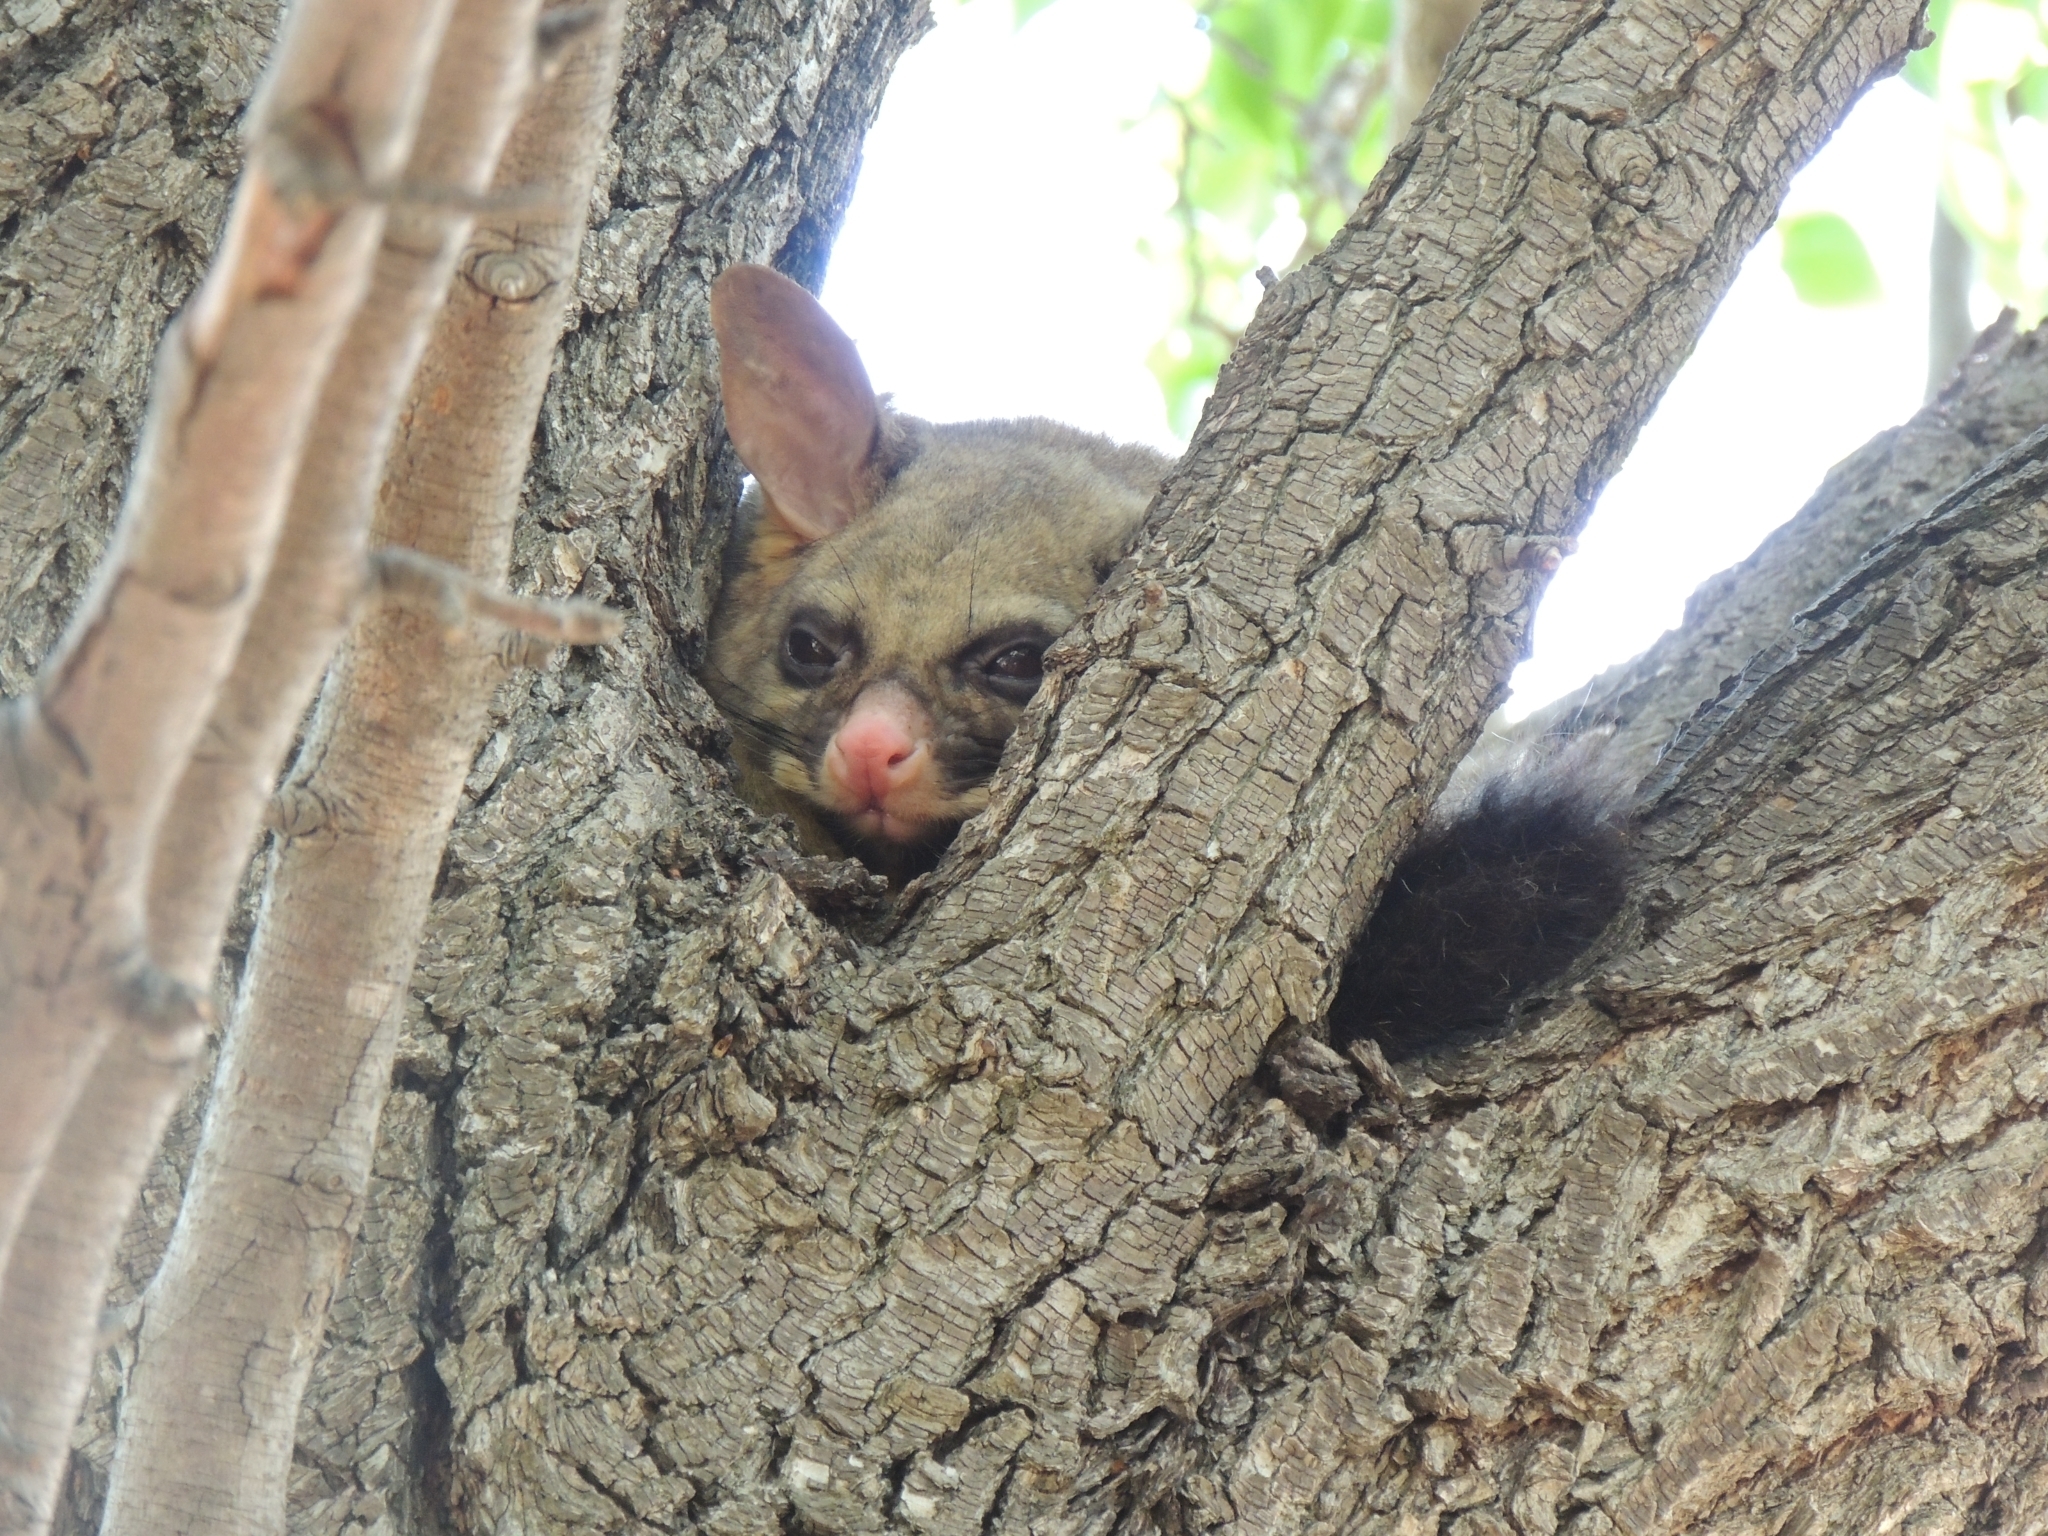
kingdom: Animalia
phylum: Chordata
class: Mammalia
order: Diprotodontia
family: Phalangeridae
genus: Trichosurus
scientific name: Trichosurus vulpecula
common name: Common brushtail
